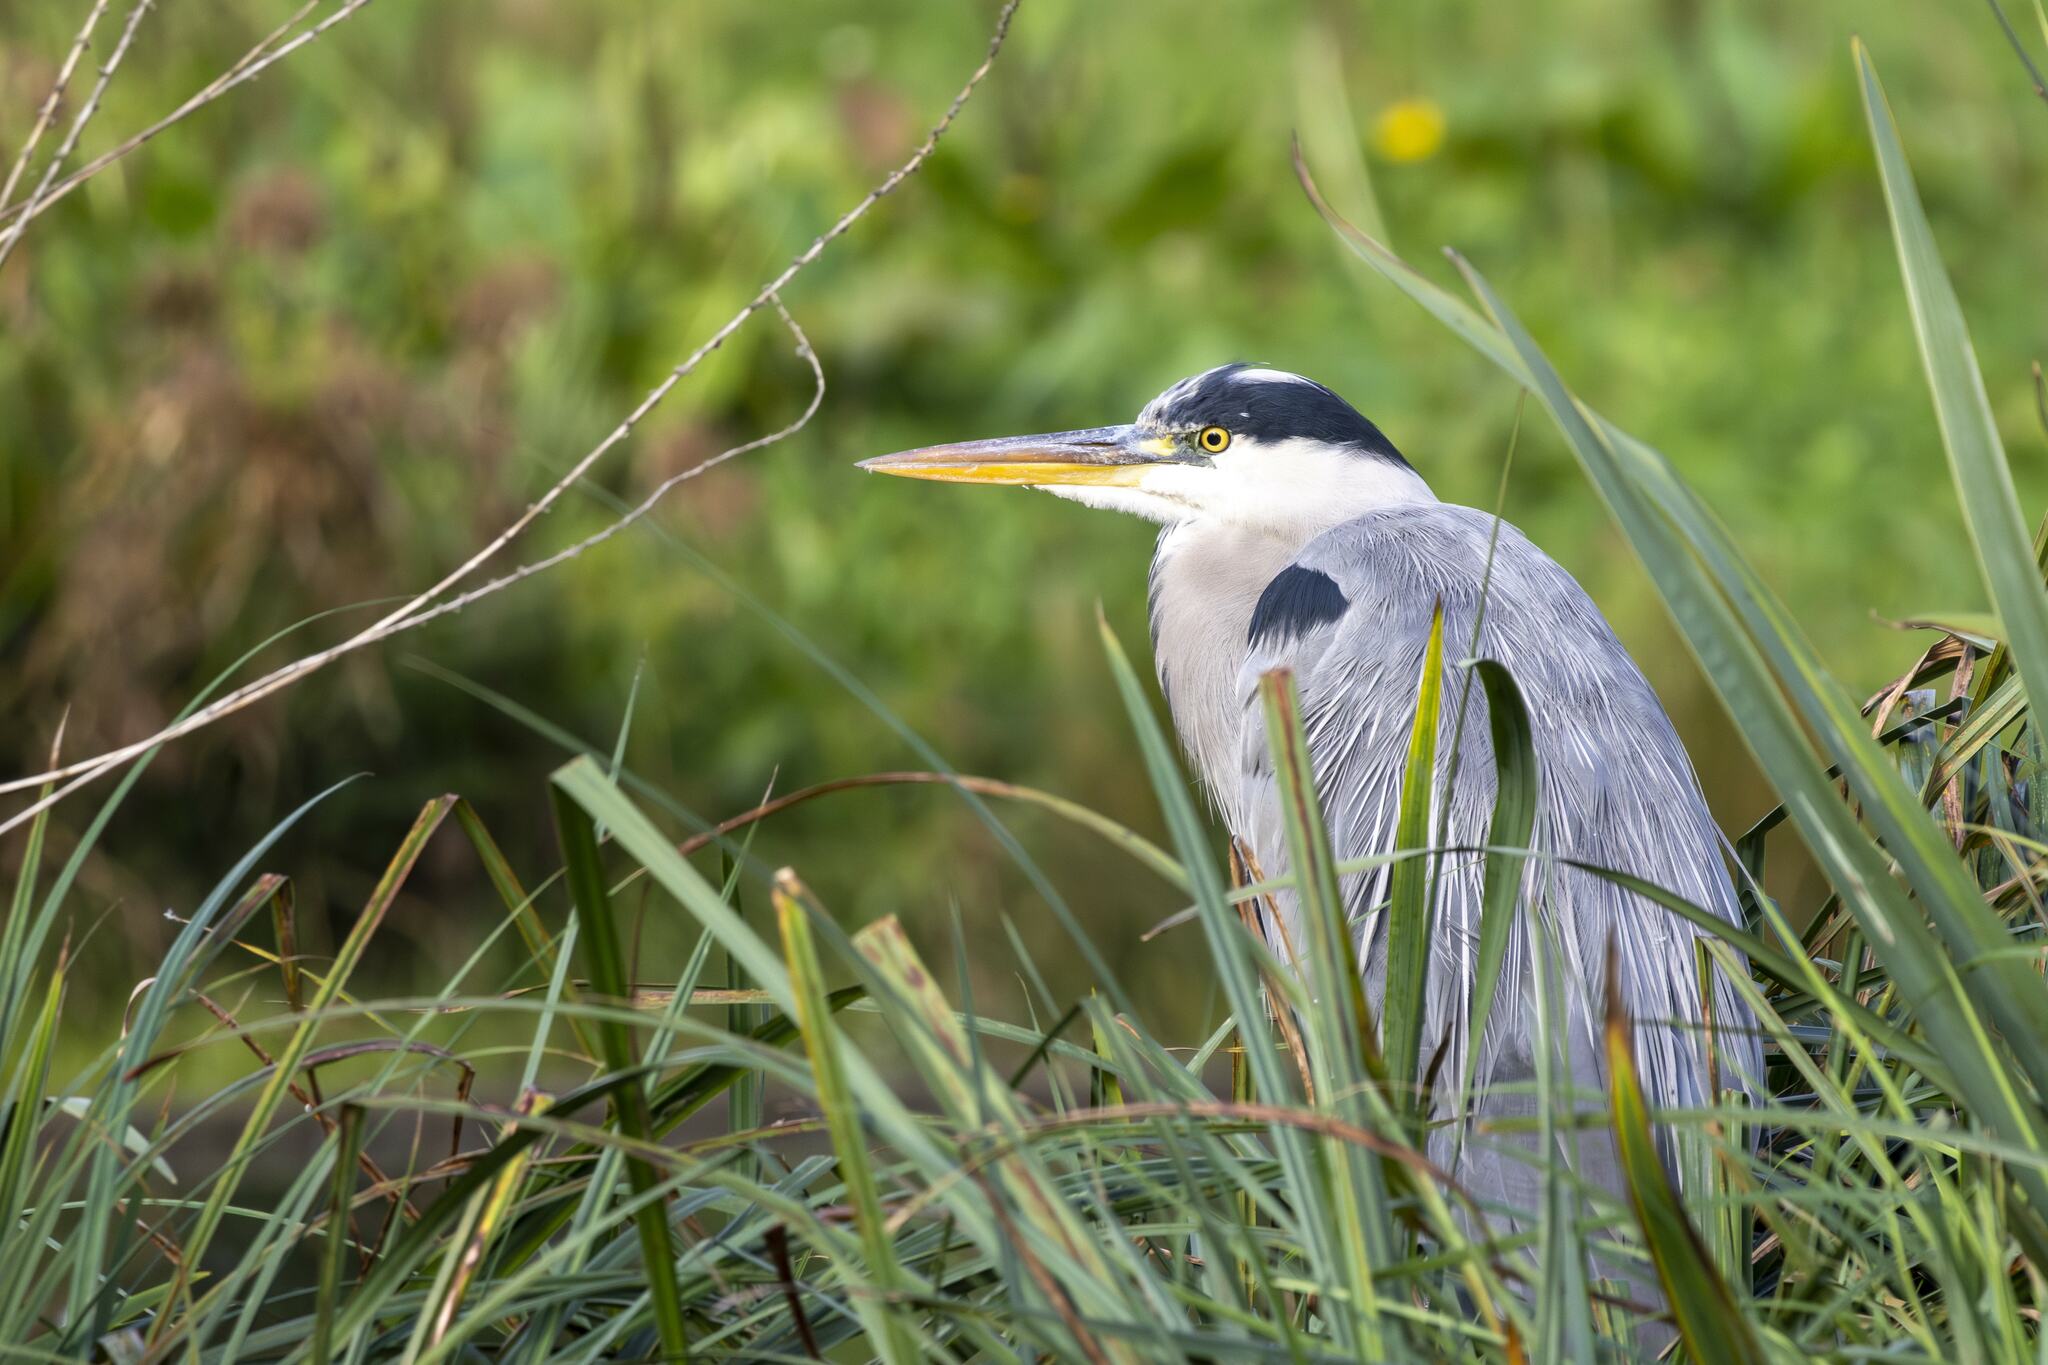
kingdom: Animalia
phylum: Chordata
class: Aves
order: Pelecaniformes
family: Ardeidae
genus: Ardea
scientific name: Ardea cinerea
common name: Grey heron
